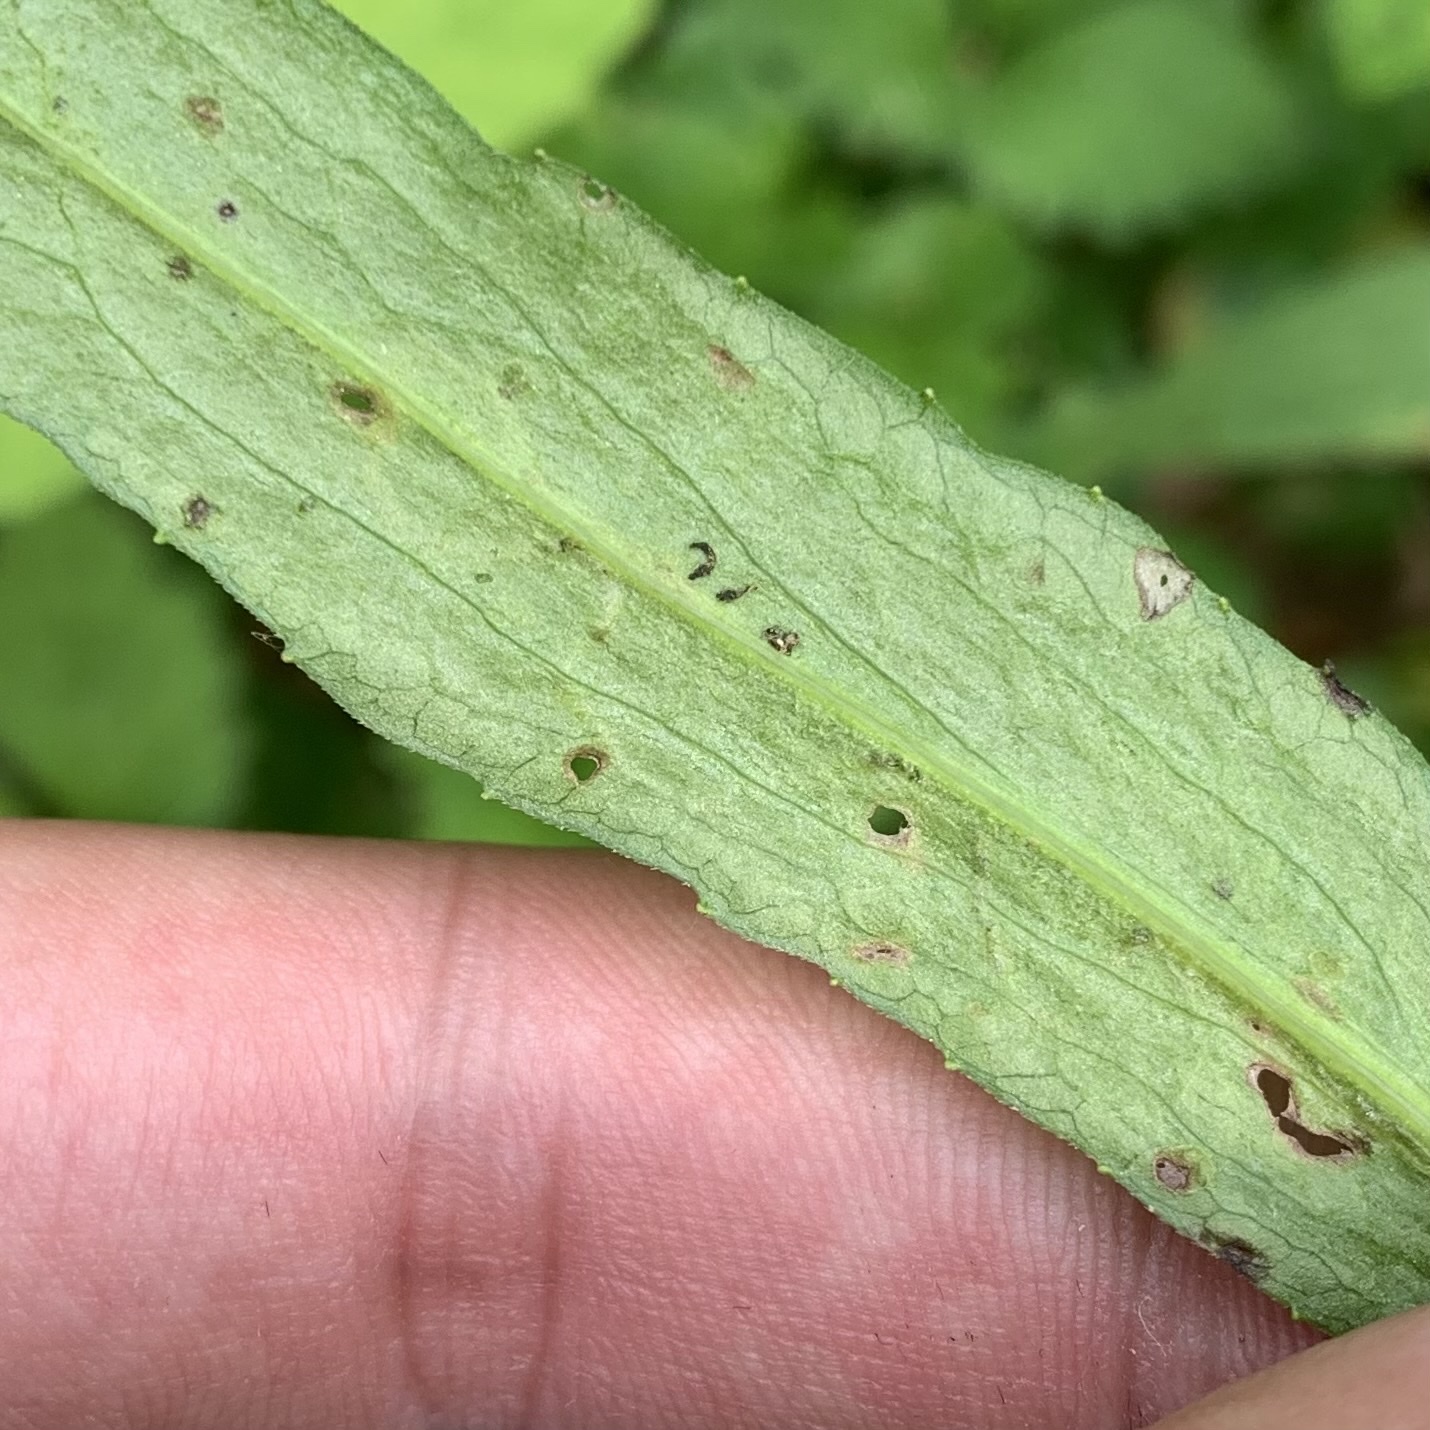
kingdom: Animalia
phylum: Arthropoda
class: Insecta
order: Diptera
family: Agromyzidae
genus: Ophiomyia
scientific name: Ophiomyia asterovora
